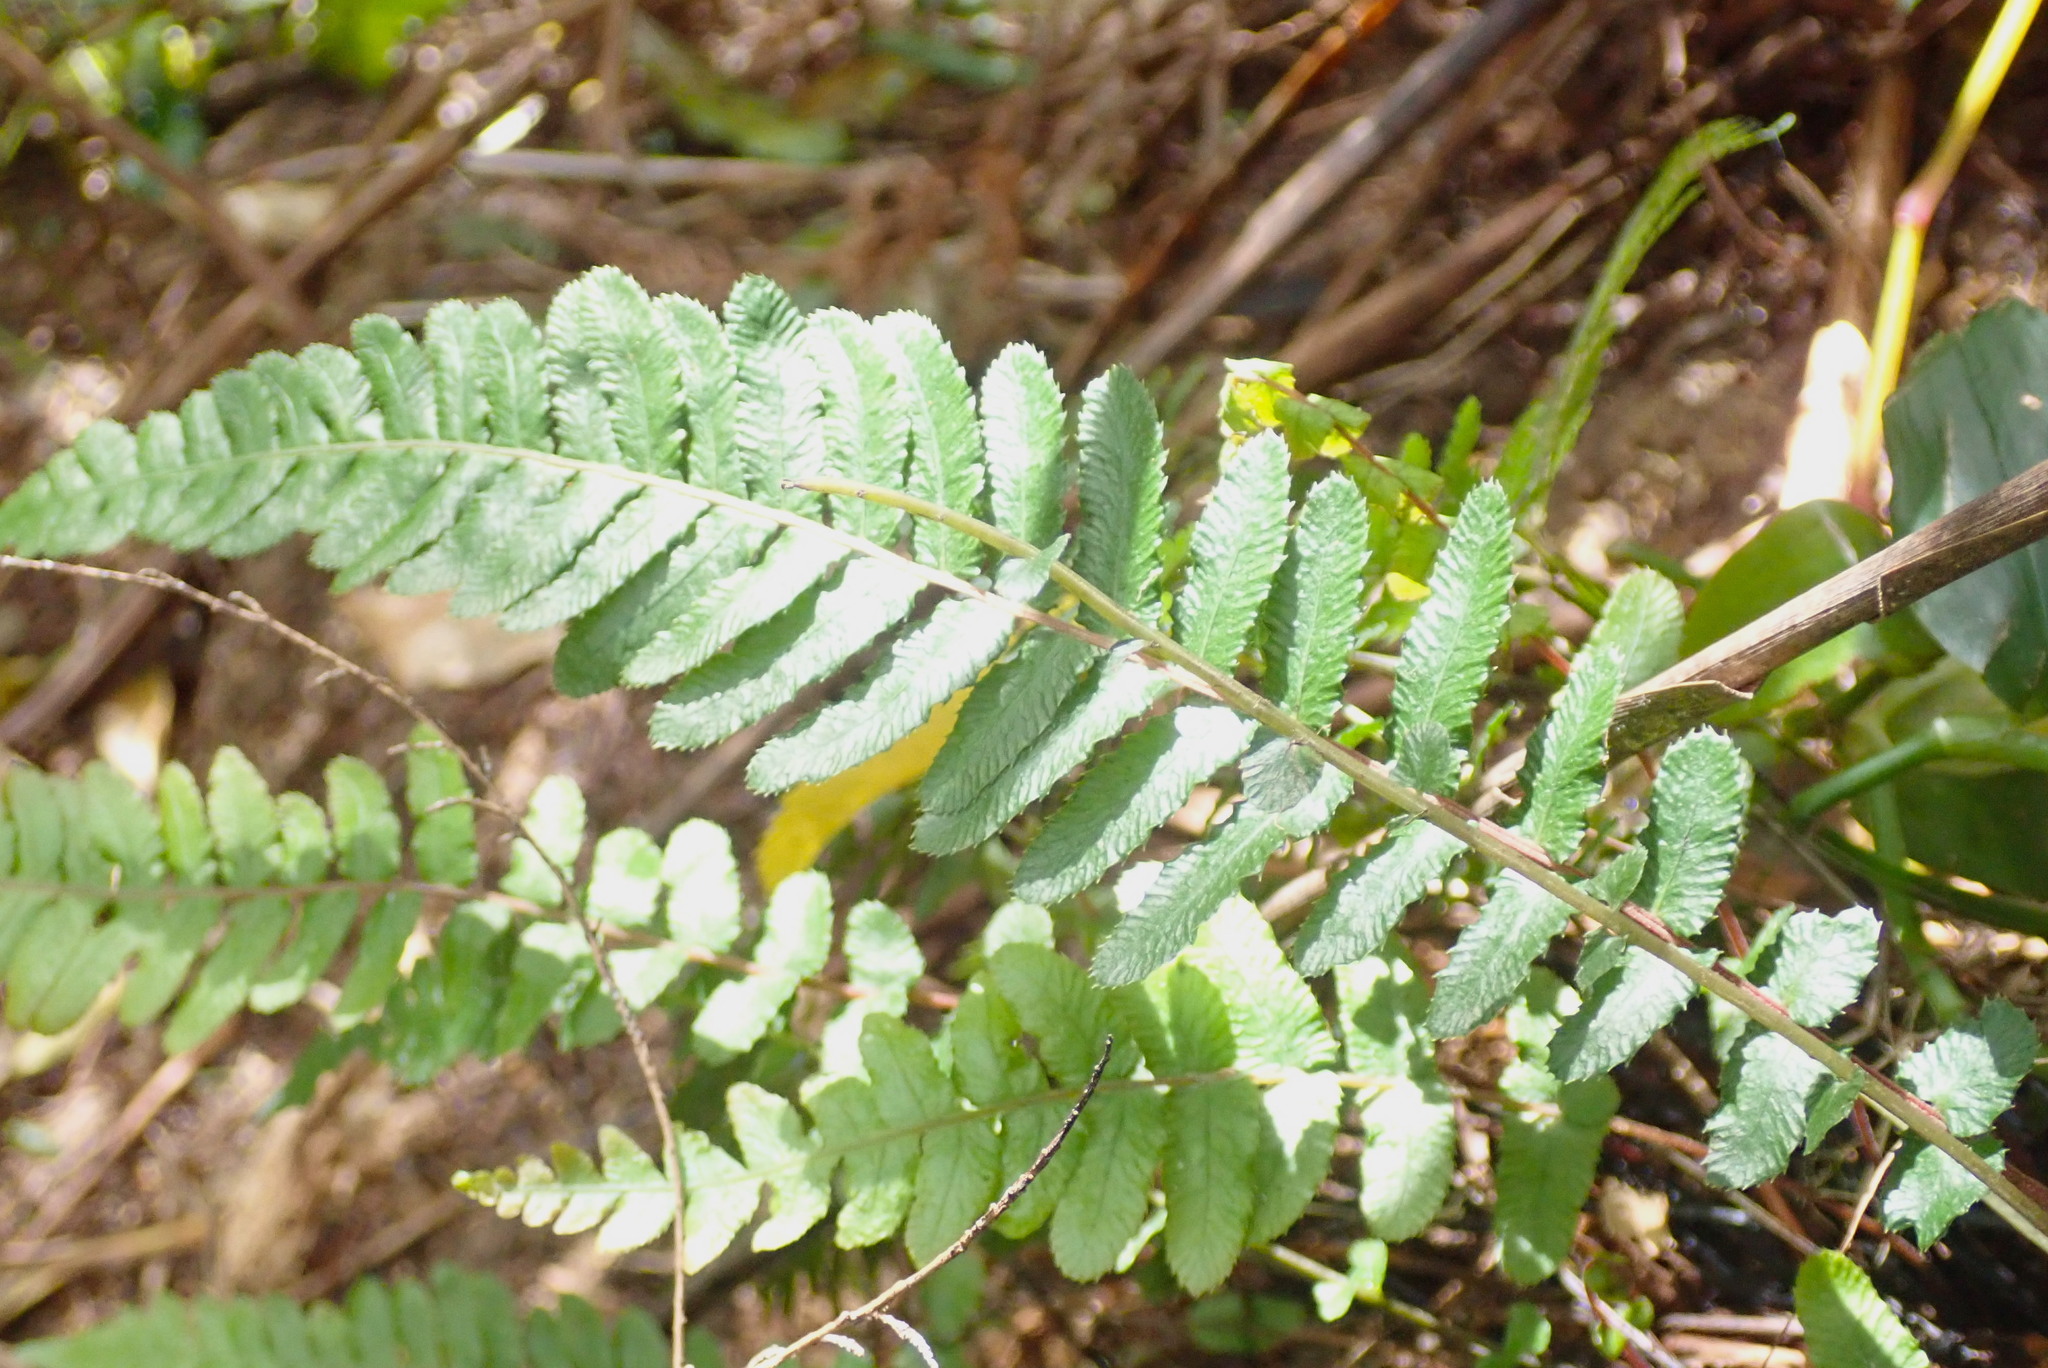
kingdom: Plantae
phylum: Tracheophyta
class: Polypodiopsida
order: Polypodiales
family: Blechnaceae
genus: Doodia
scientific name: Doodia australis
